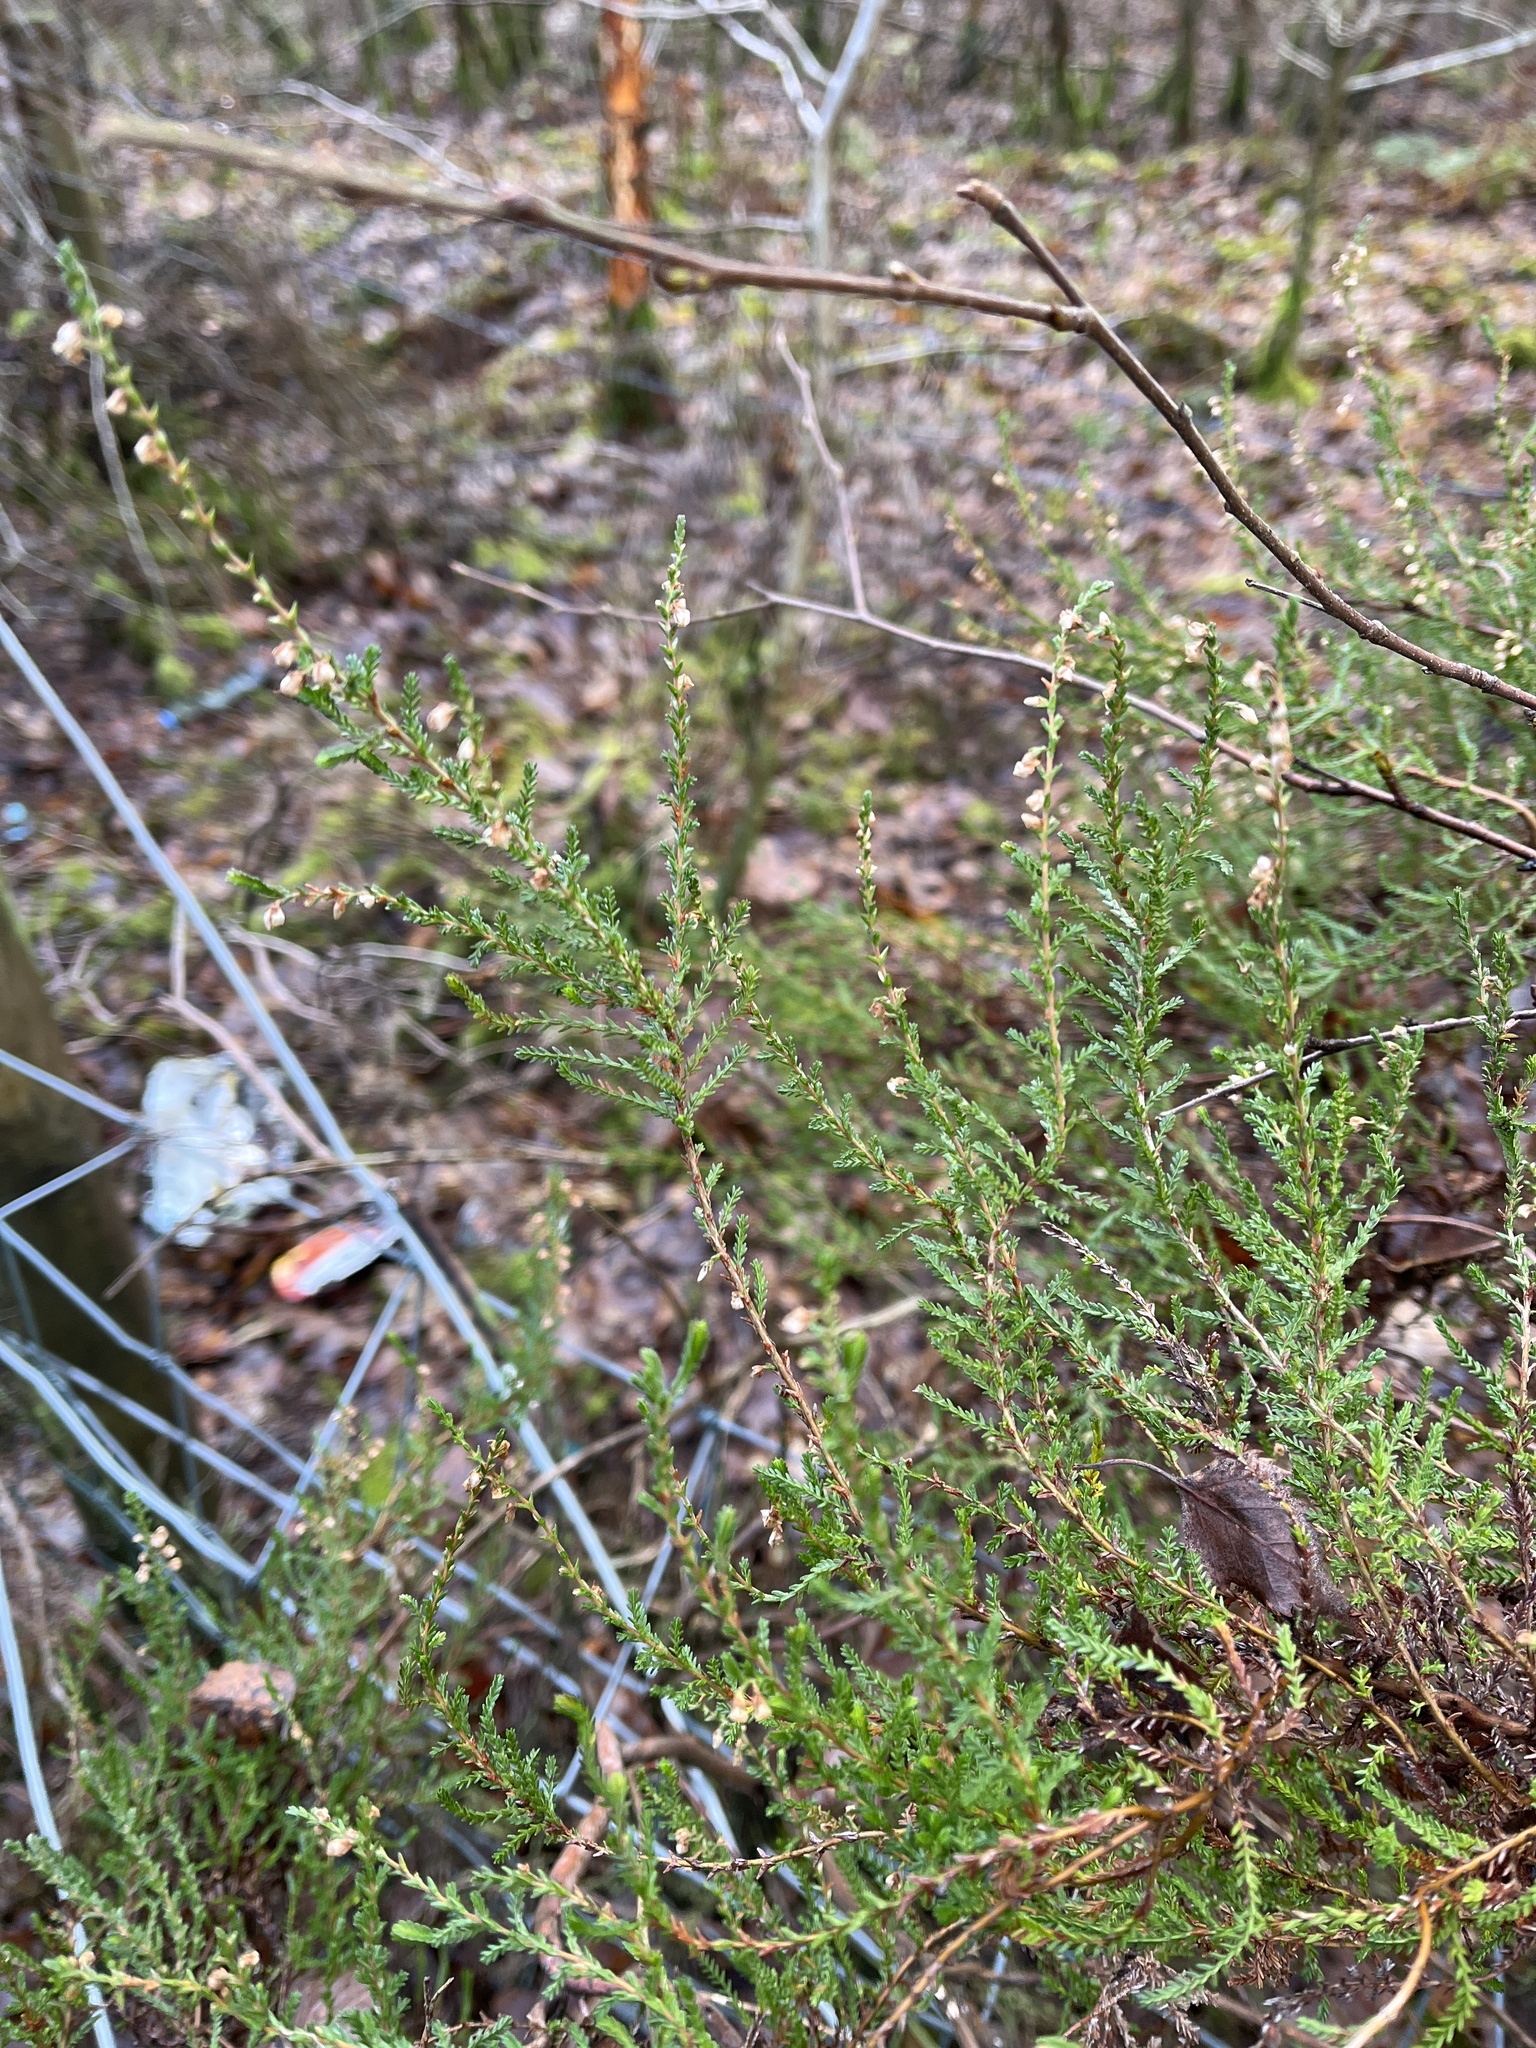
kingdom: Plantae
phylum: Tracheophyta
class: Magnoliopsida
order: Ericales
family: Ericaceae
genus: Calluna
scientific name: Calluna vulgaris
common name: Heather
